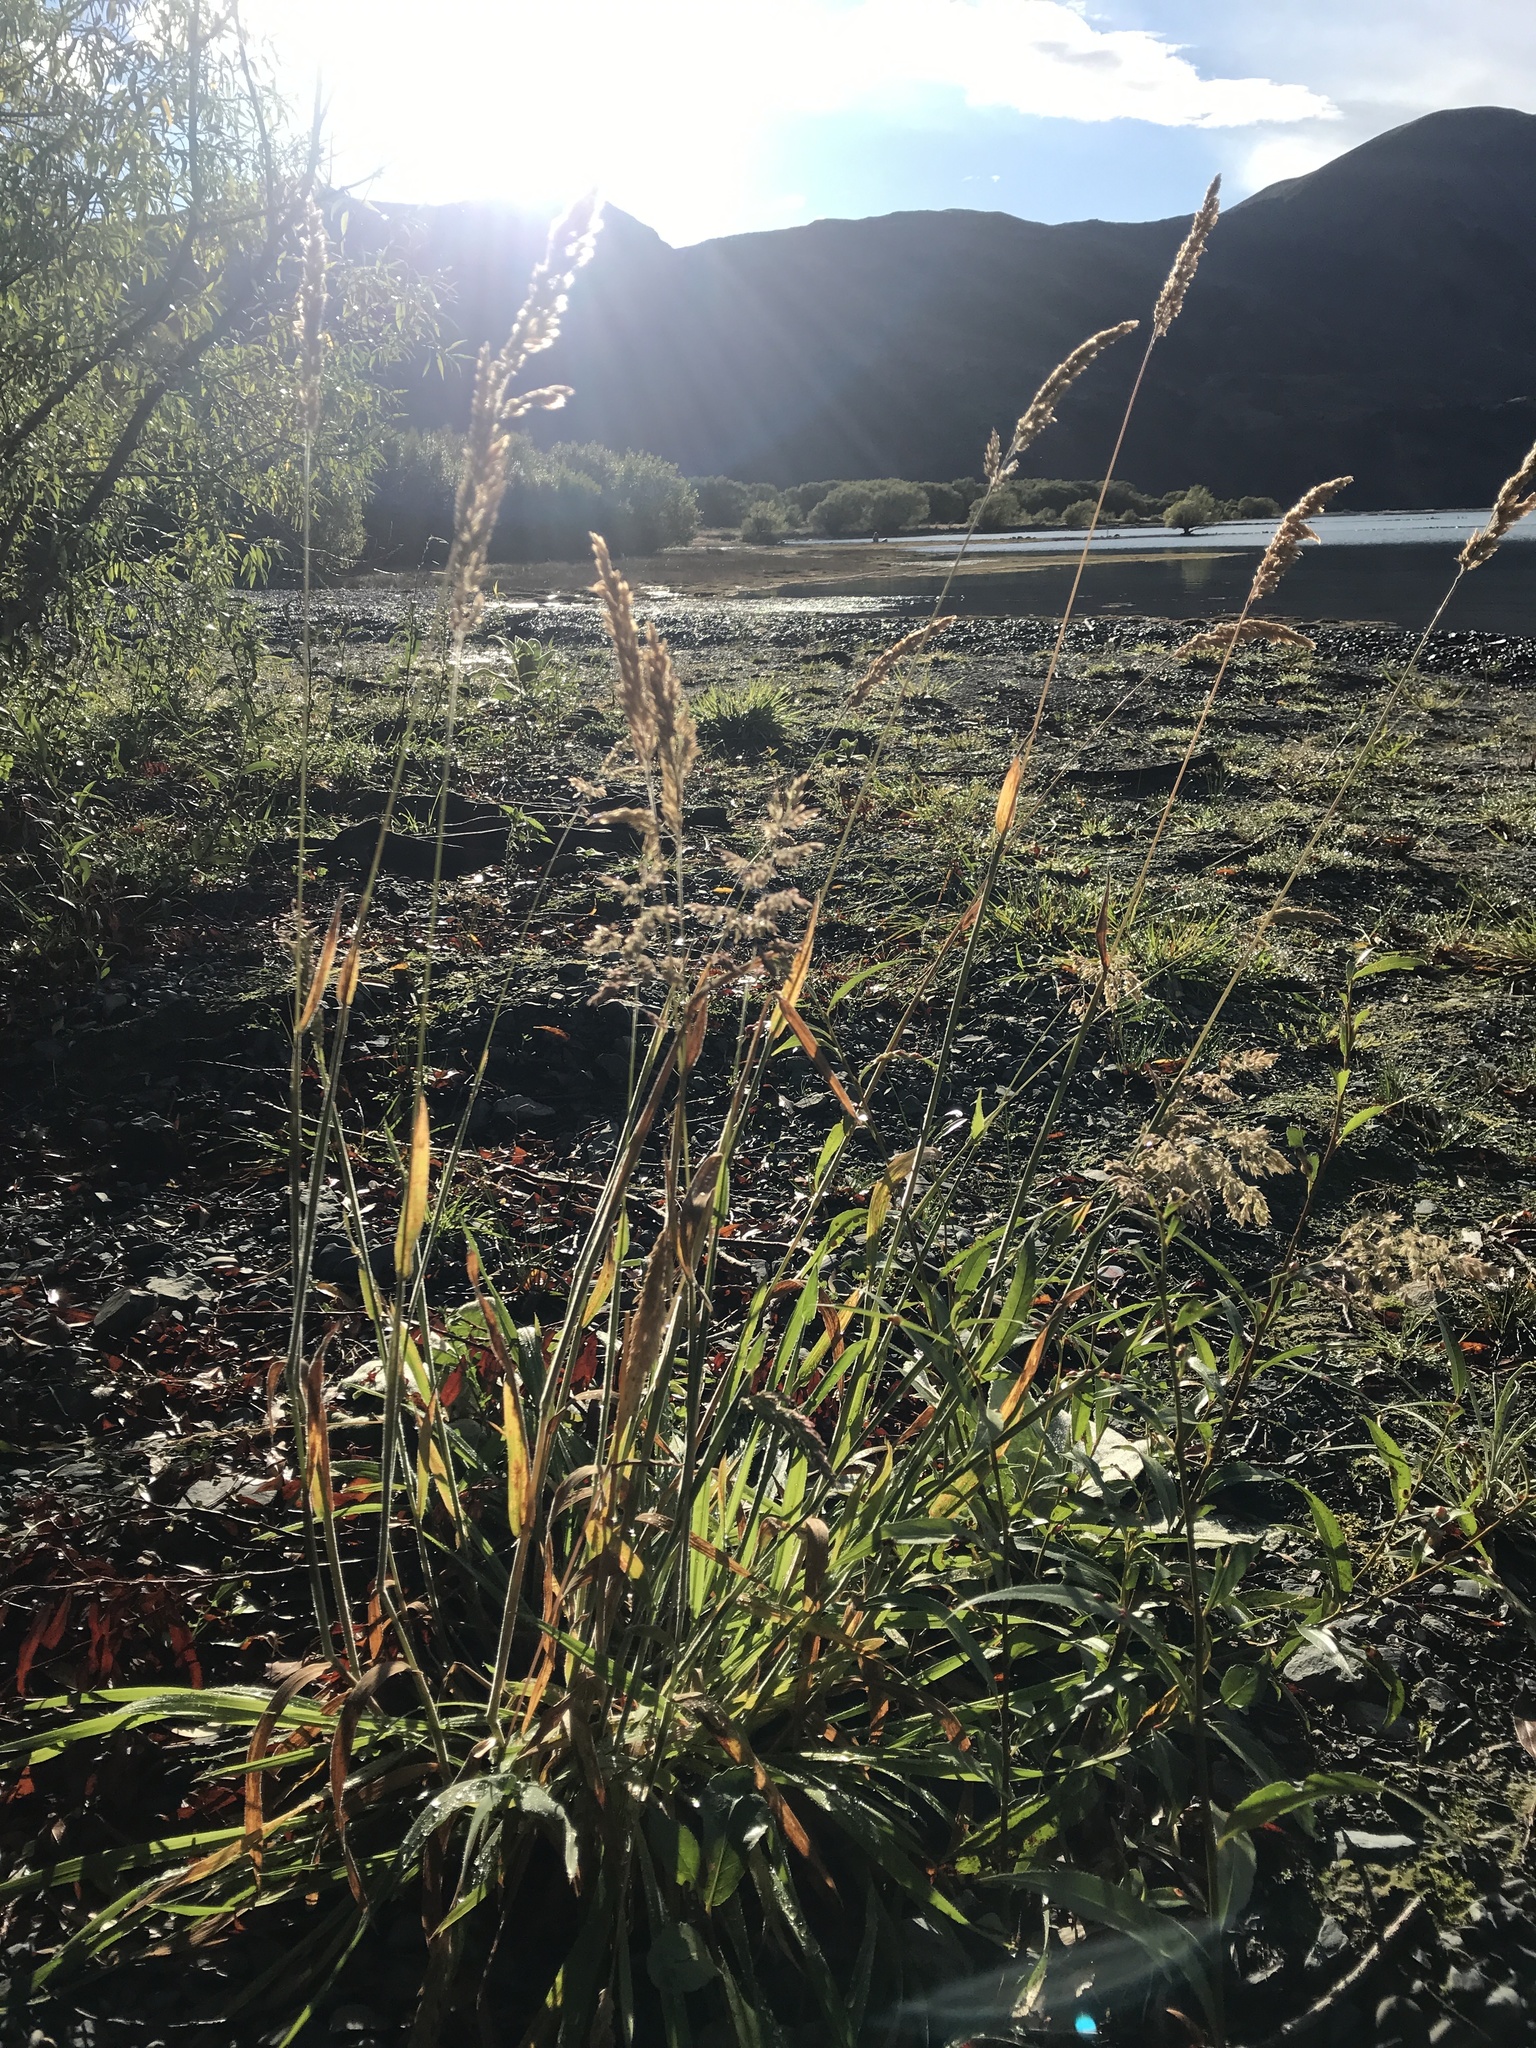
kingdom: Plantae
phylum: Tracheophyta
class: Liliopsida
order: Poales
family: Poaceae
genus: Holcus
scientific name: Holcus lanatus
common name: Yorkshire-fog
